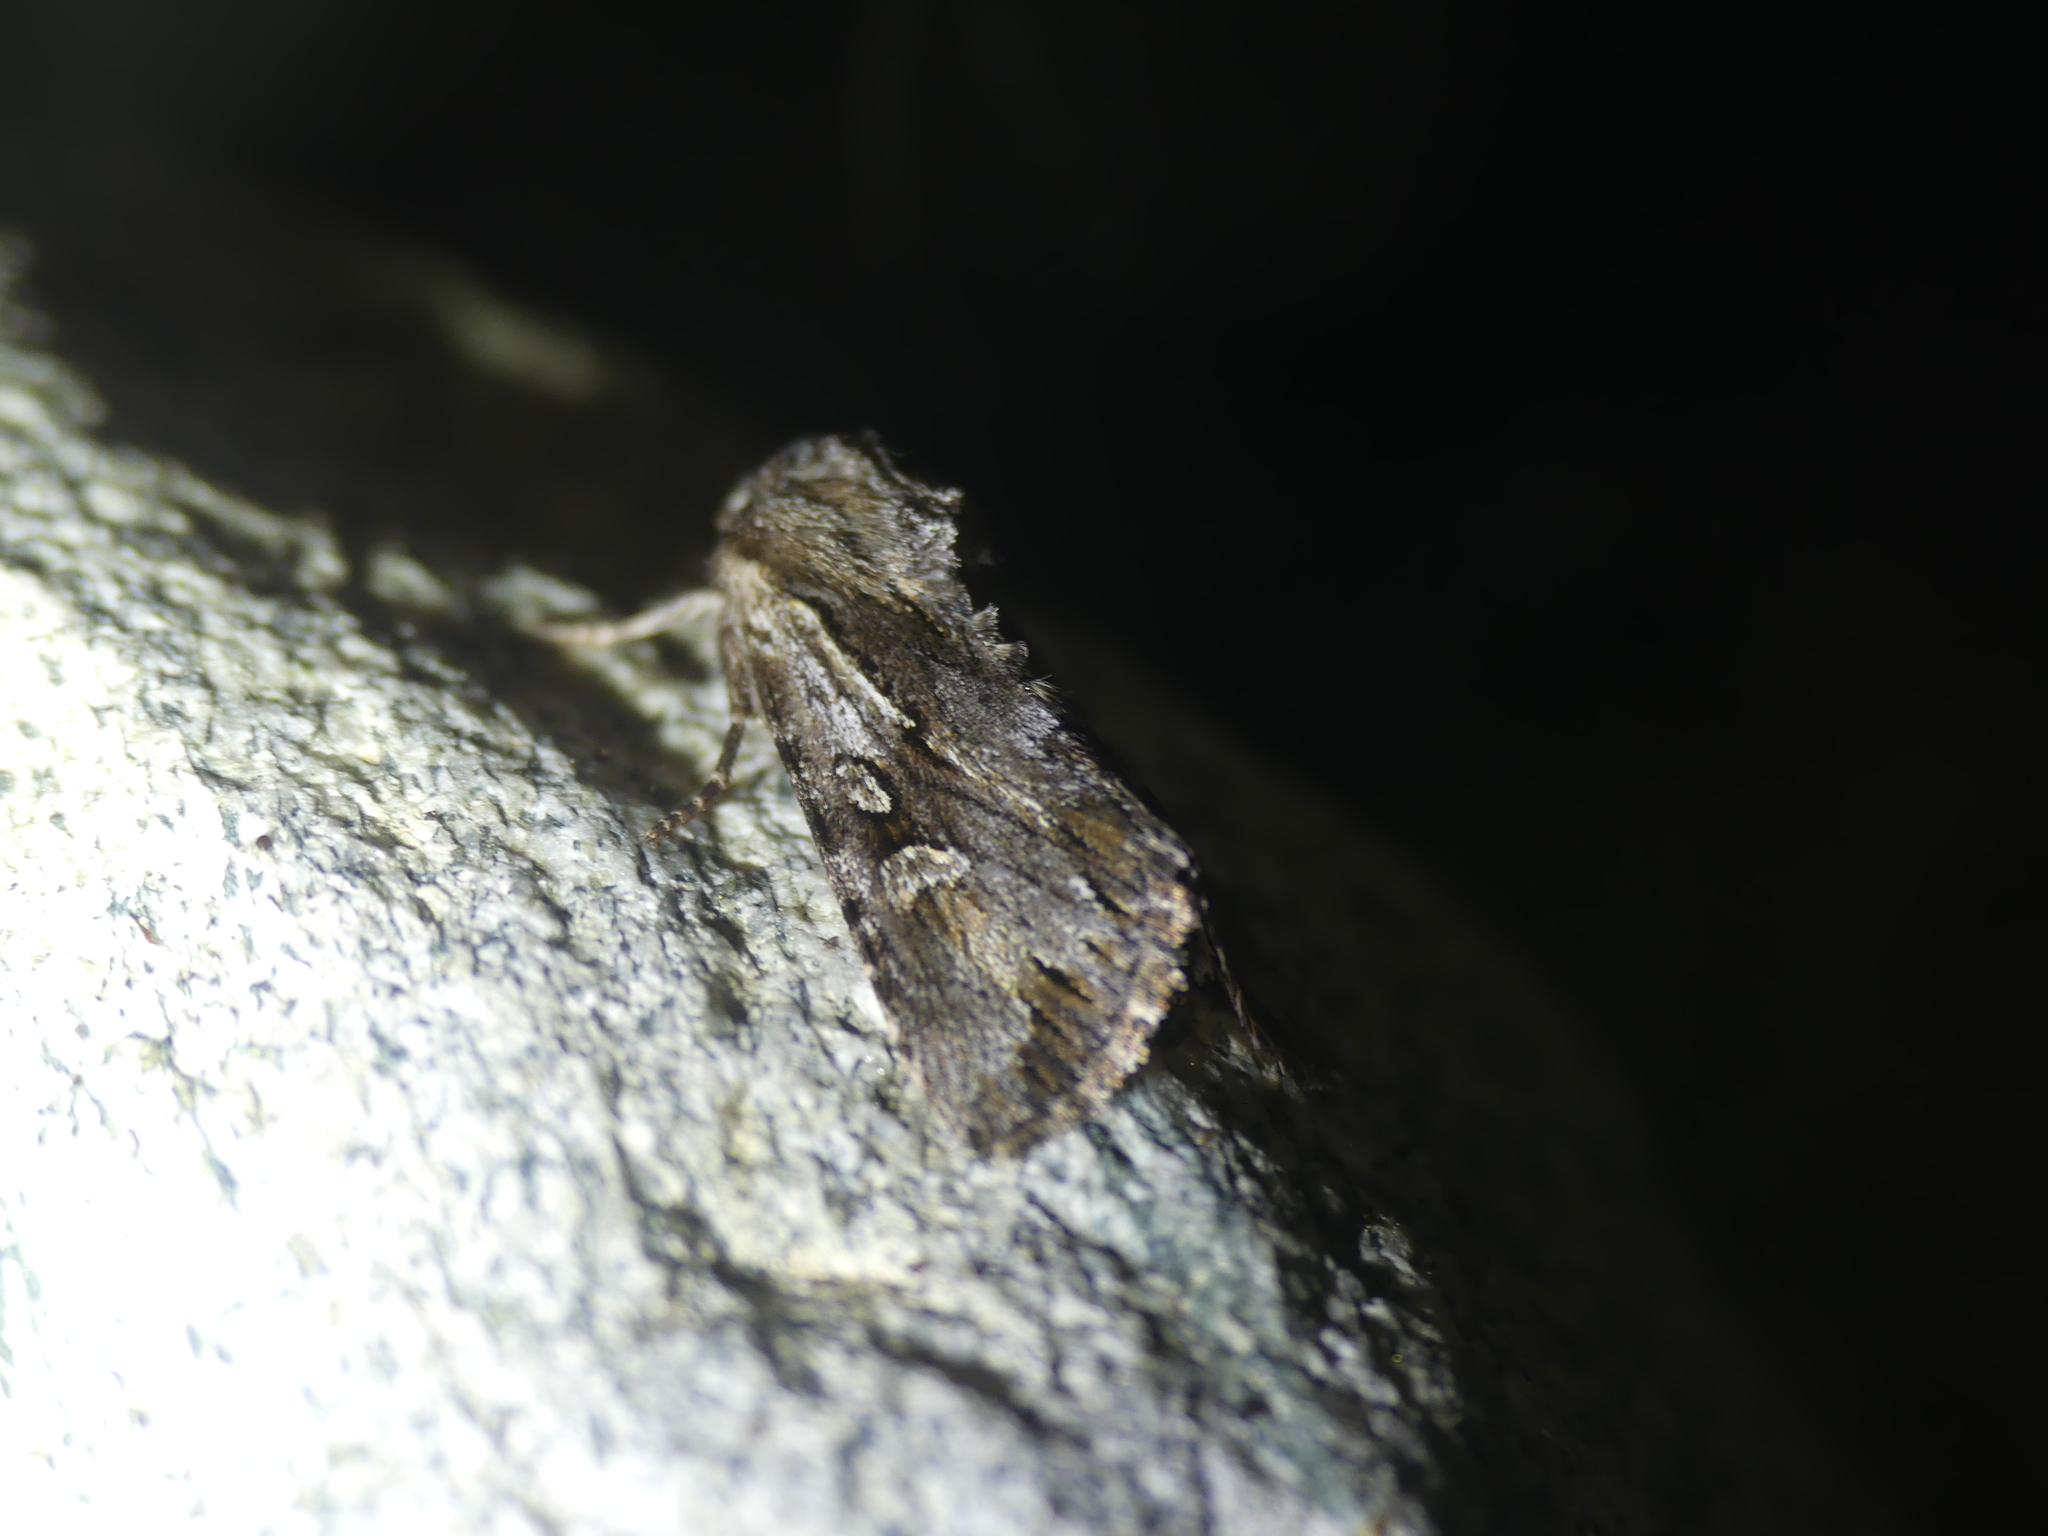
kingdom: Animalia
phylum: Arthropoda
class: Insecta
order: Lepidoptera
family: Noctuidae
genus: Chloantha
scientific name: Chloantha hyperici
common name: Pale-shouldered cloud
